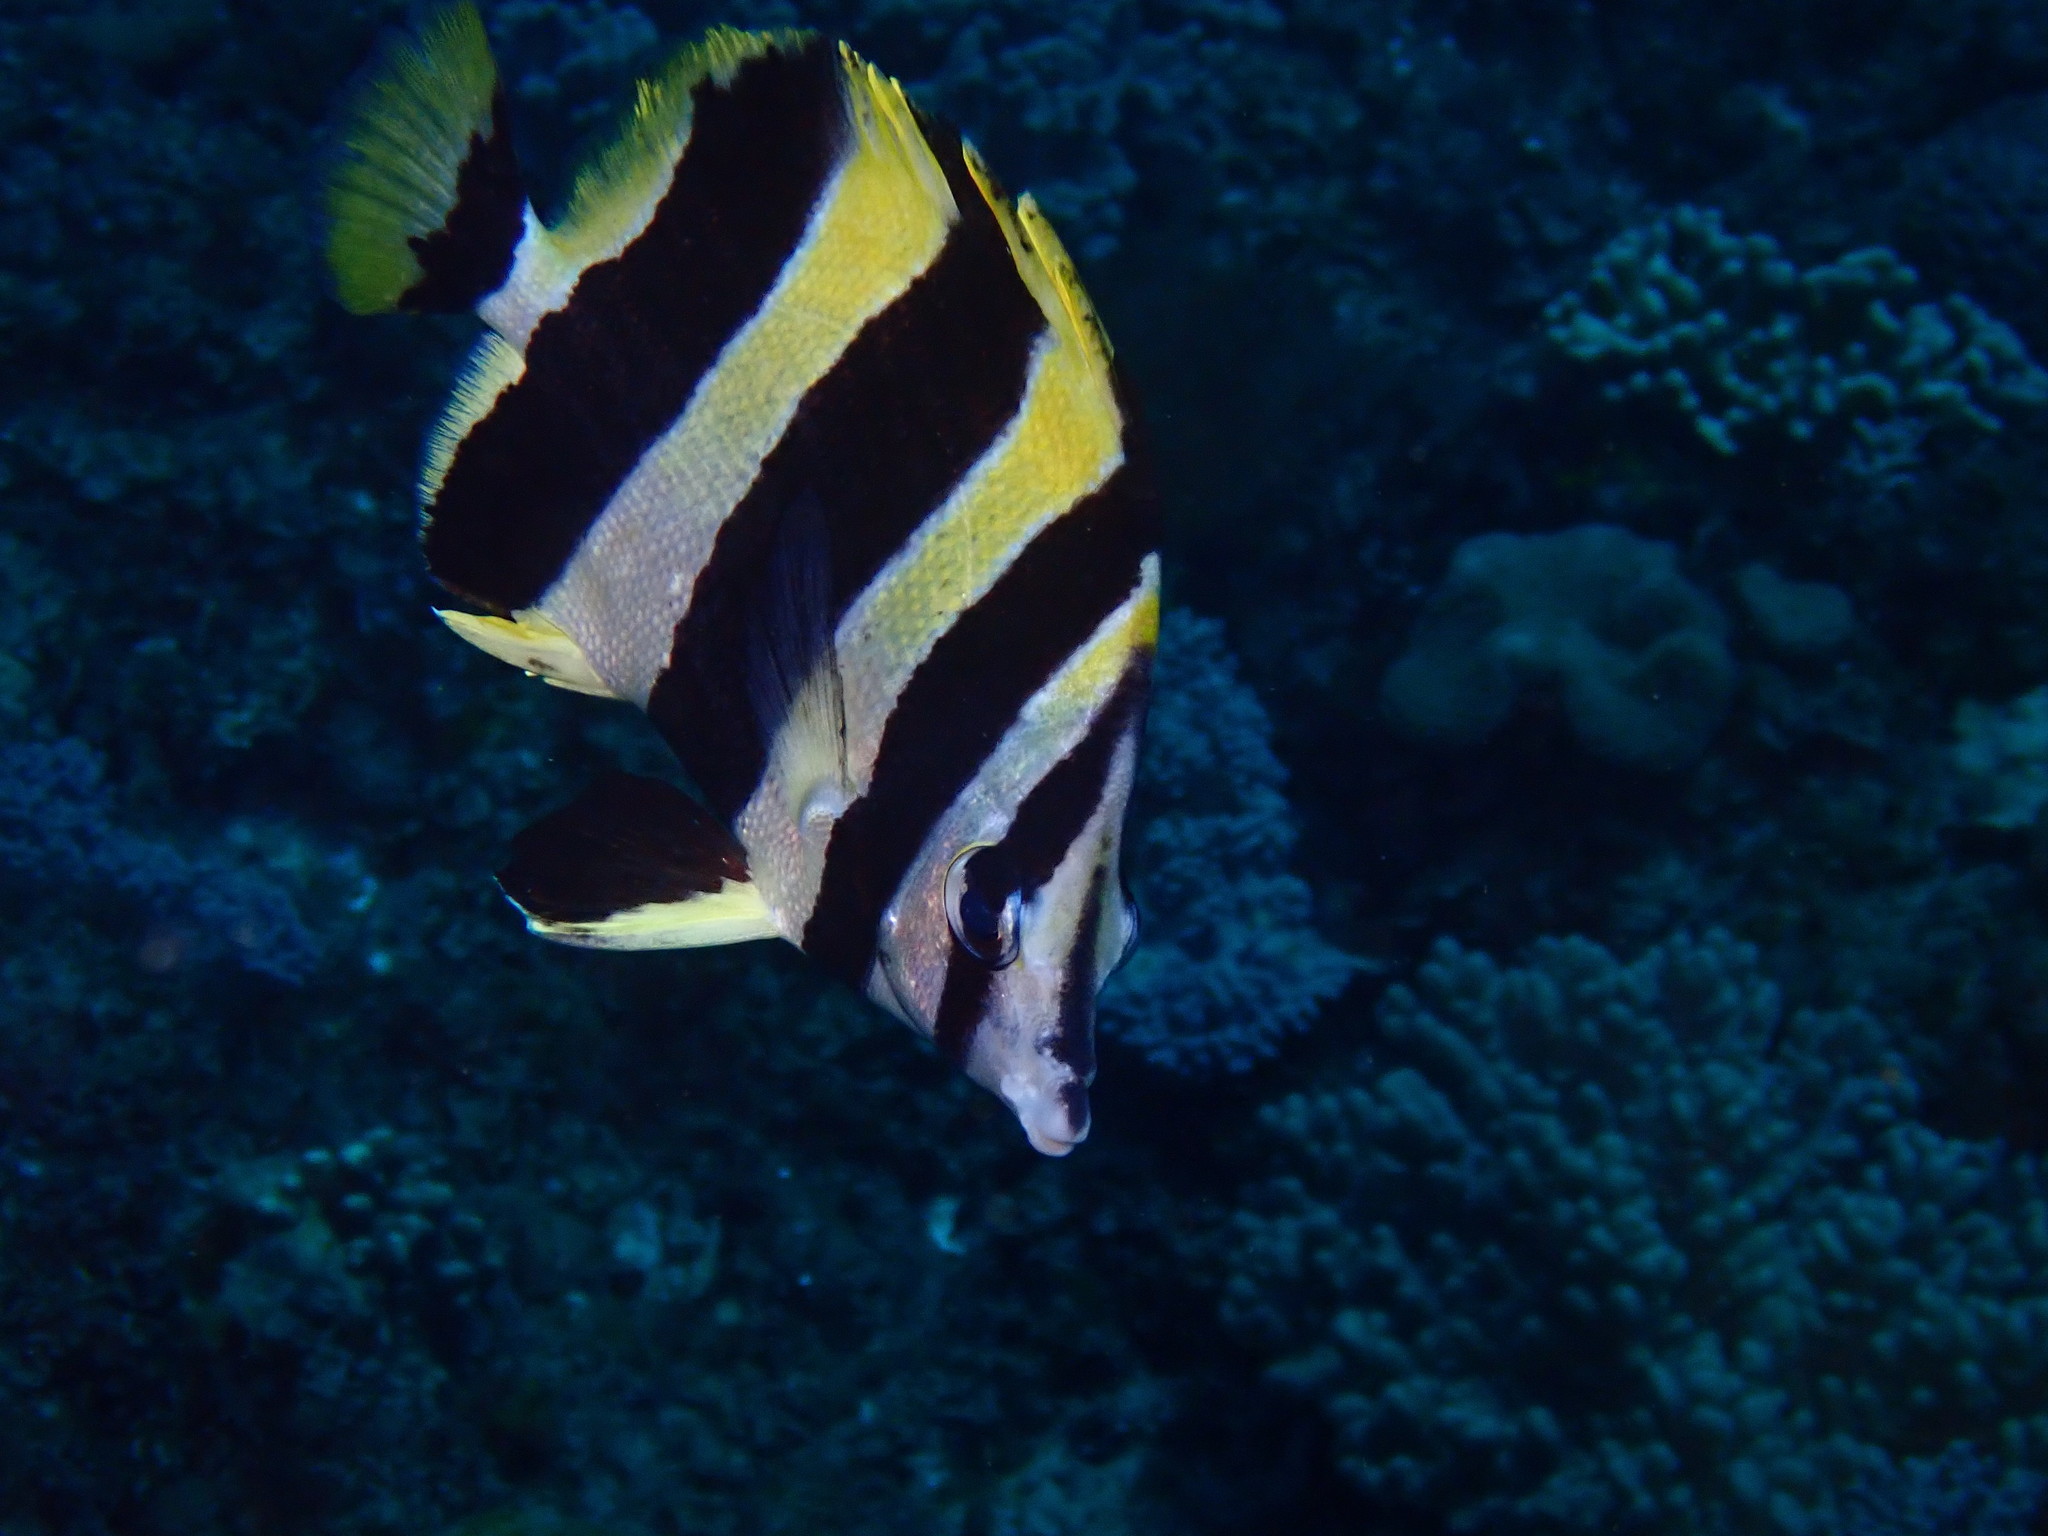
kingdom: Animalia
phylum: Chordata
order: Perciformes
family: Chaetodontidae
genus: Amphichaetodon
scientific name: Amphichaetodon howensis
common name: Broad-barred butterflyfish
